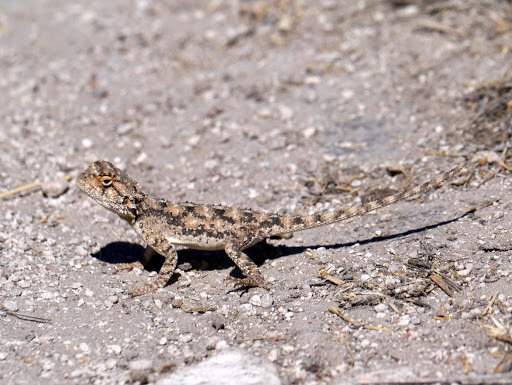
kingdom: Animalia
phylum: Chordata
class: Squamata
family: Agamidae
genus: Agama
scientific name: Agama aculeata
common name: Common ground agama
